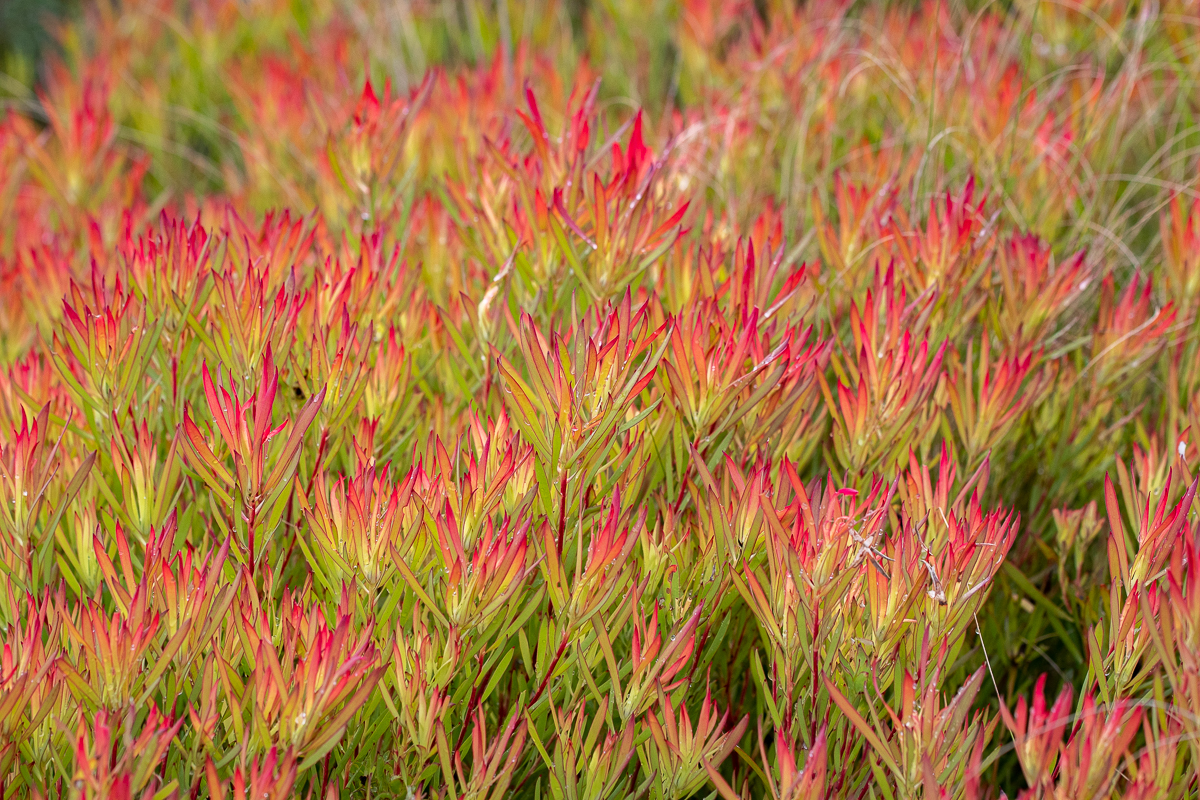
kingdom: Plantae
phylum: Tracheophyta
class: Magnoliopsida
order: Proteales
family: Proteaceae
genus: Leucadendron
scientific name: Leucadendron salignum
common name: Common sunshine conebush
